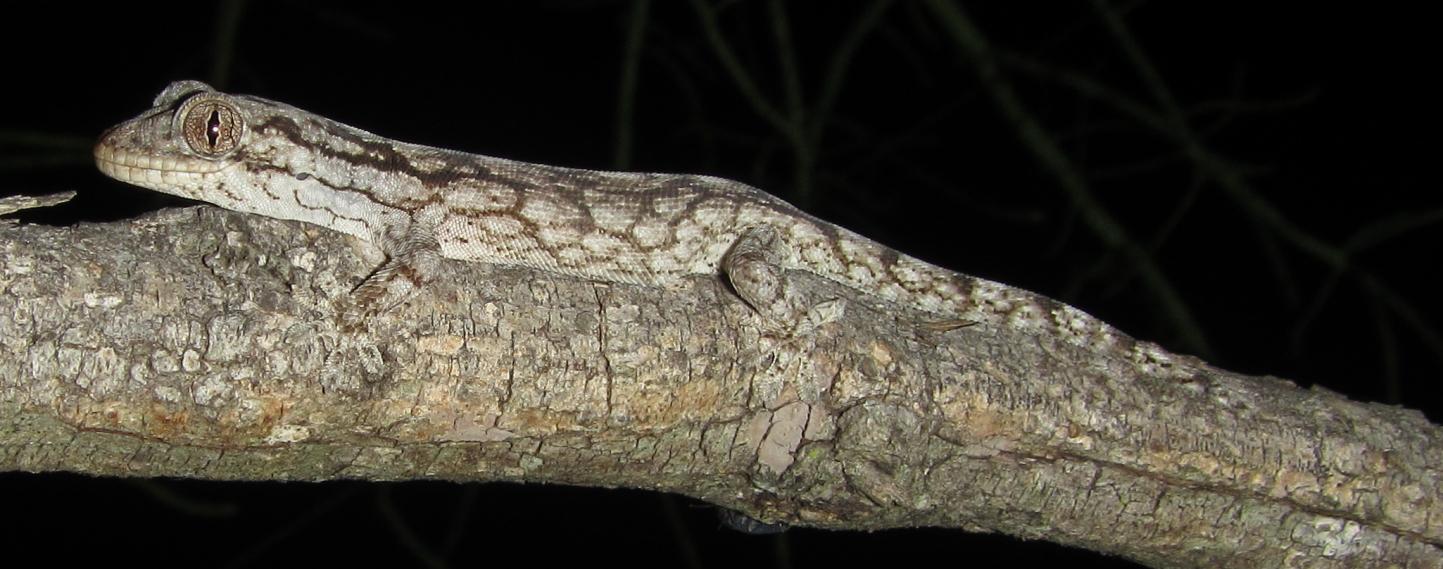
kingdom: Animalia
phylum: Chordata
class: Squamata
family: Gekkonidae
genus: Homopholis
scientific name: Homopholis walbergii
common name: Wahlberg’s velvet gecko
